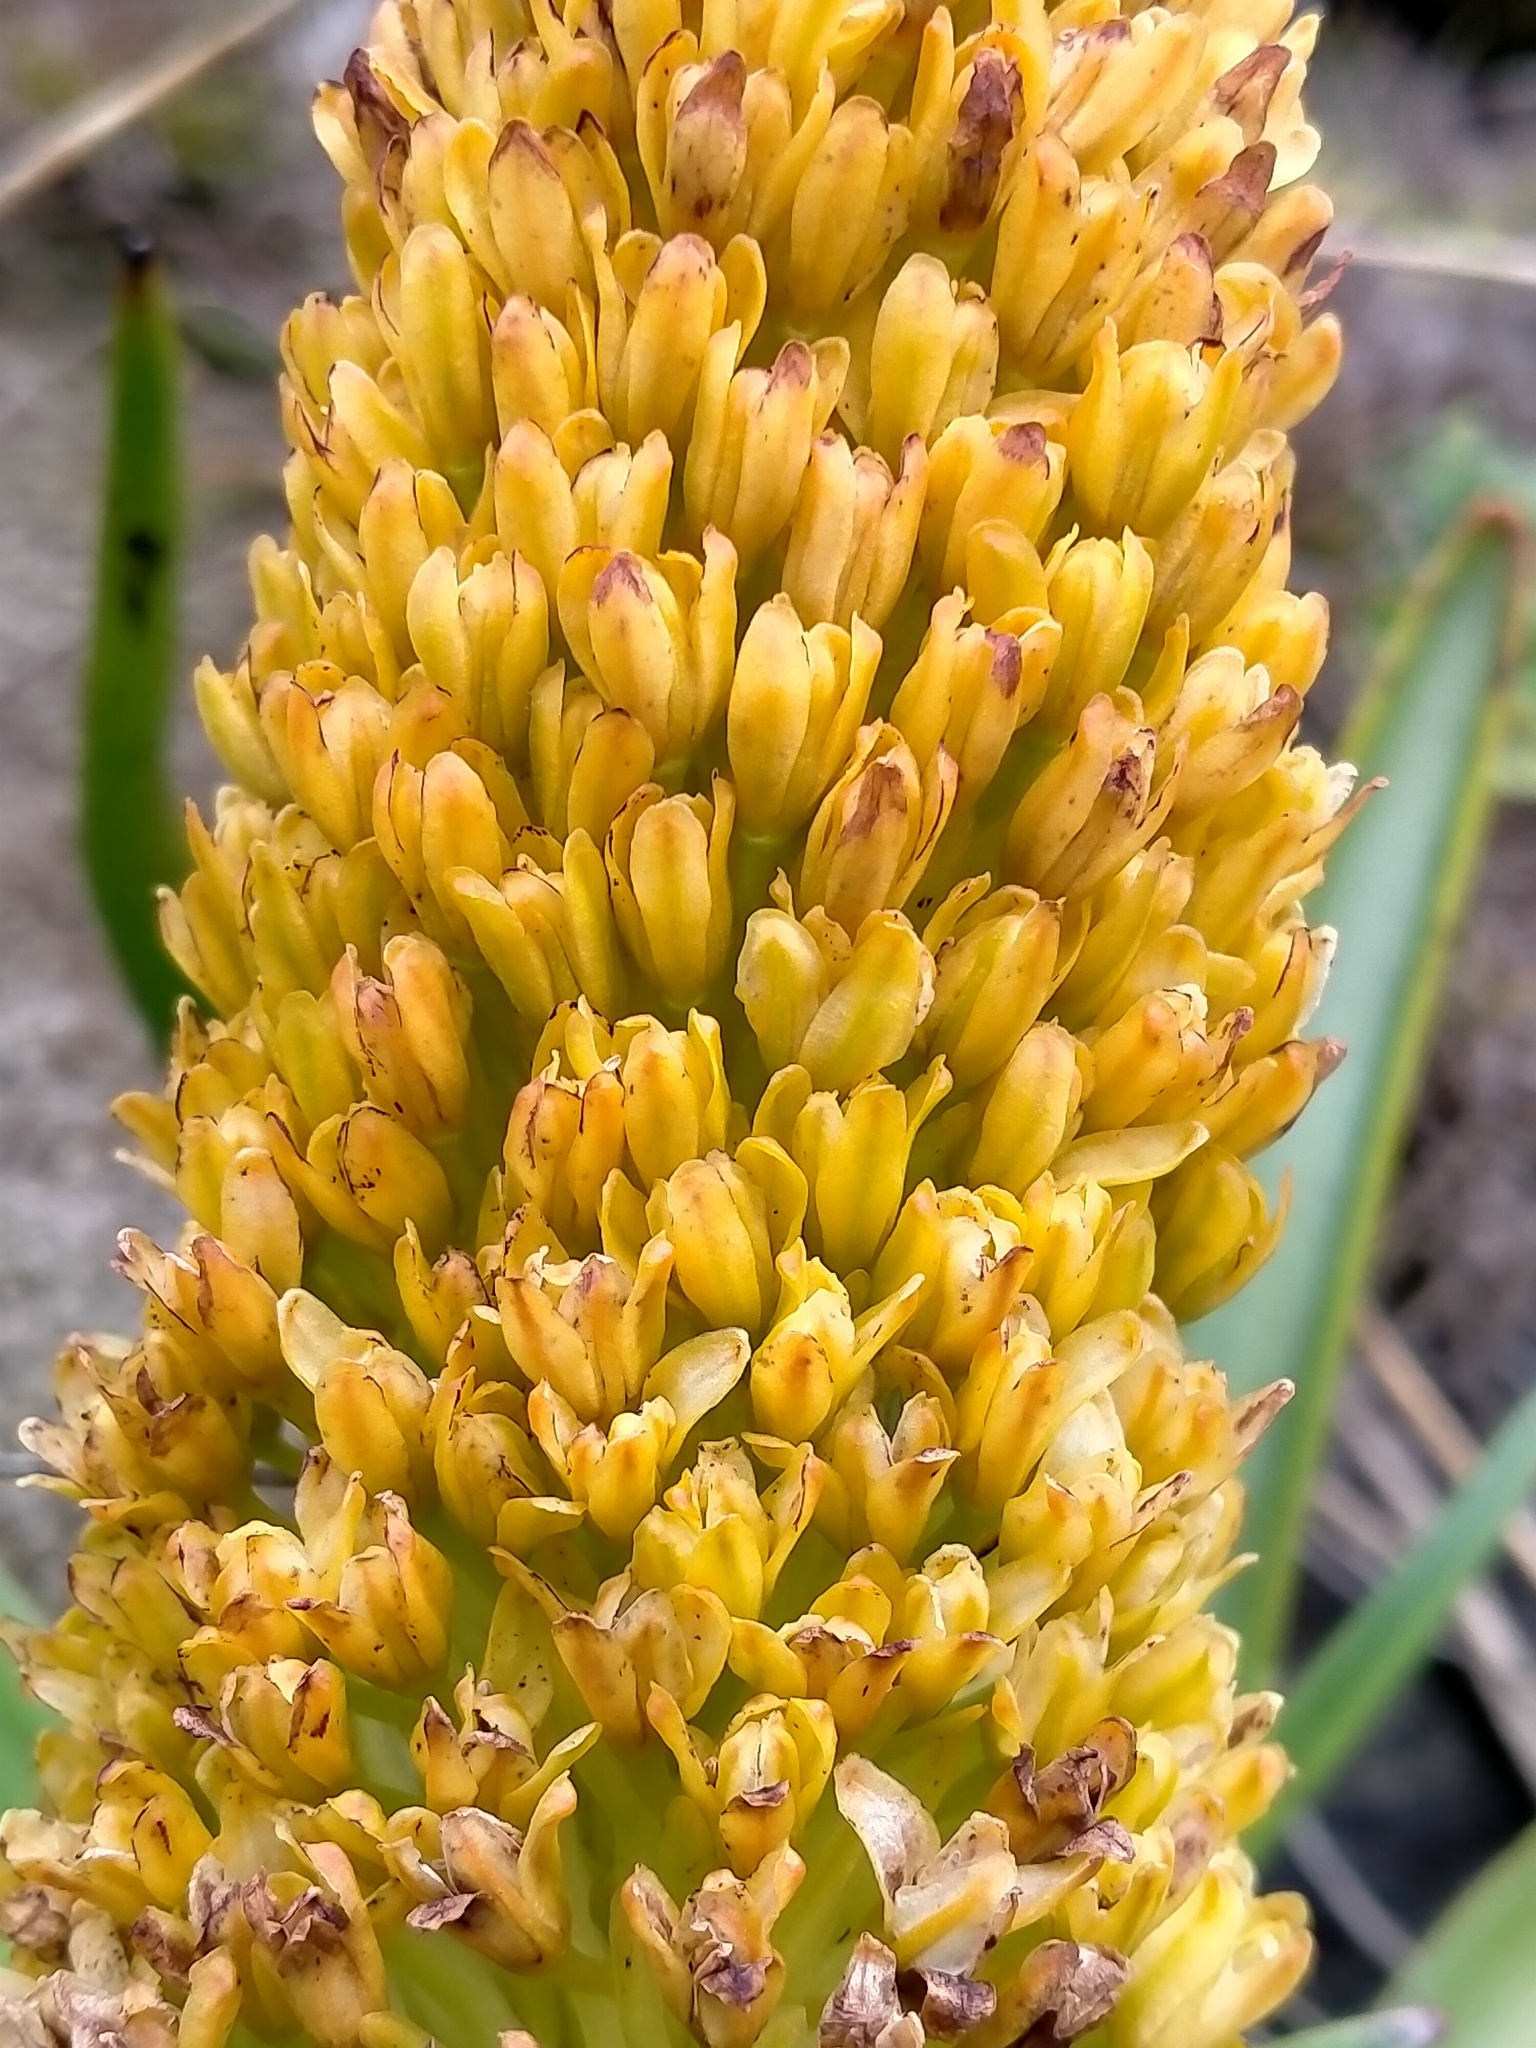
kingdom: Plantae
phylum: Tracheophyta
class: Liliopsida
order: Asparagales
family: Asphodelaceae
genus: Bulbinella
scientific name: Bulbinella rossii
